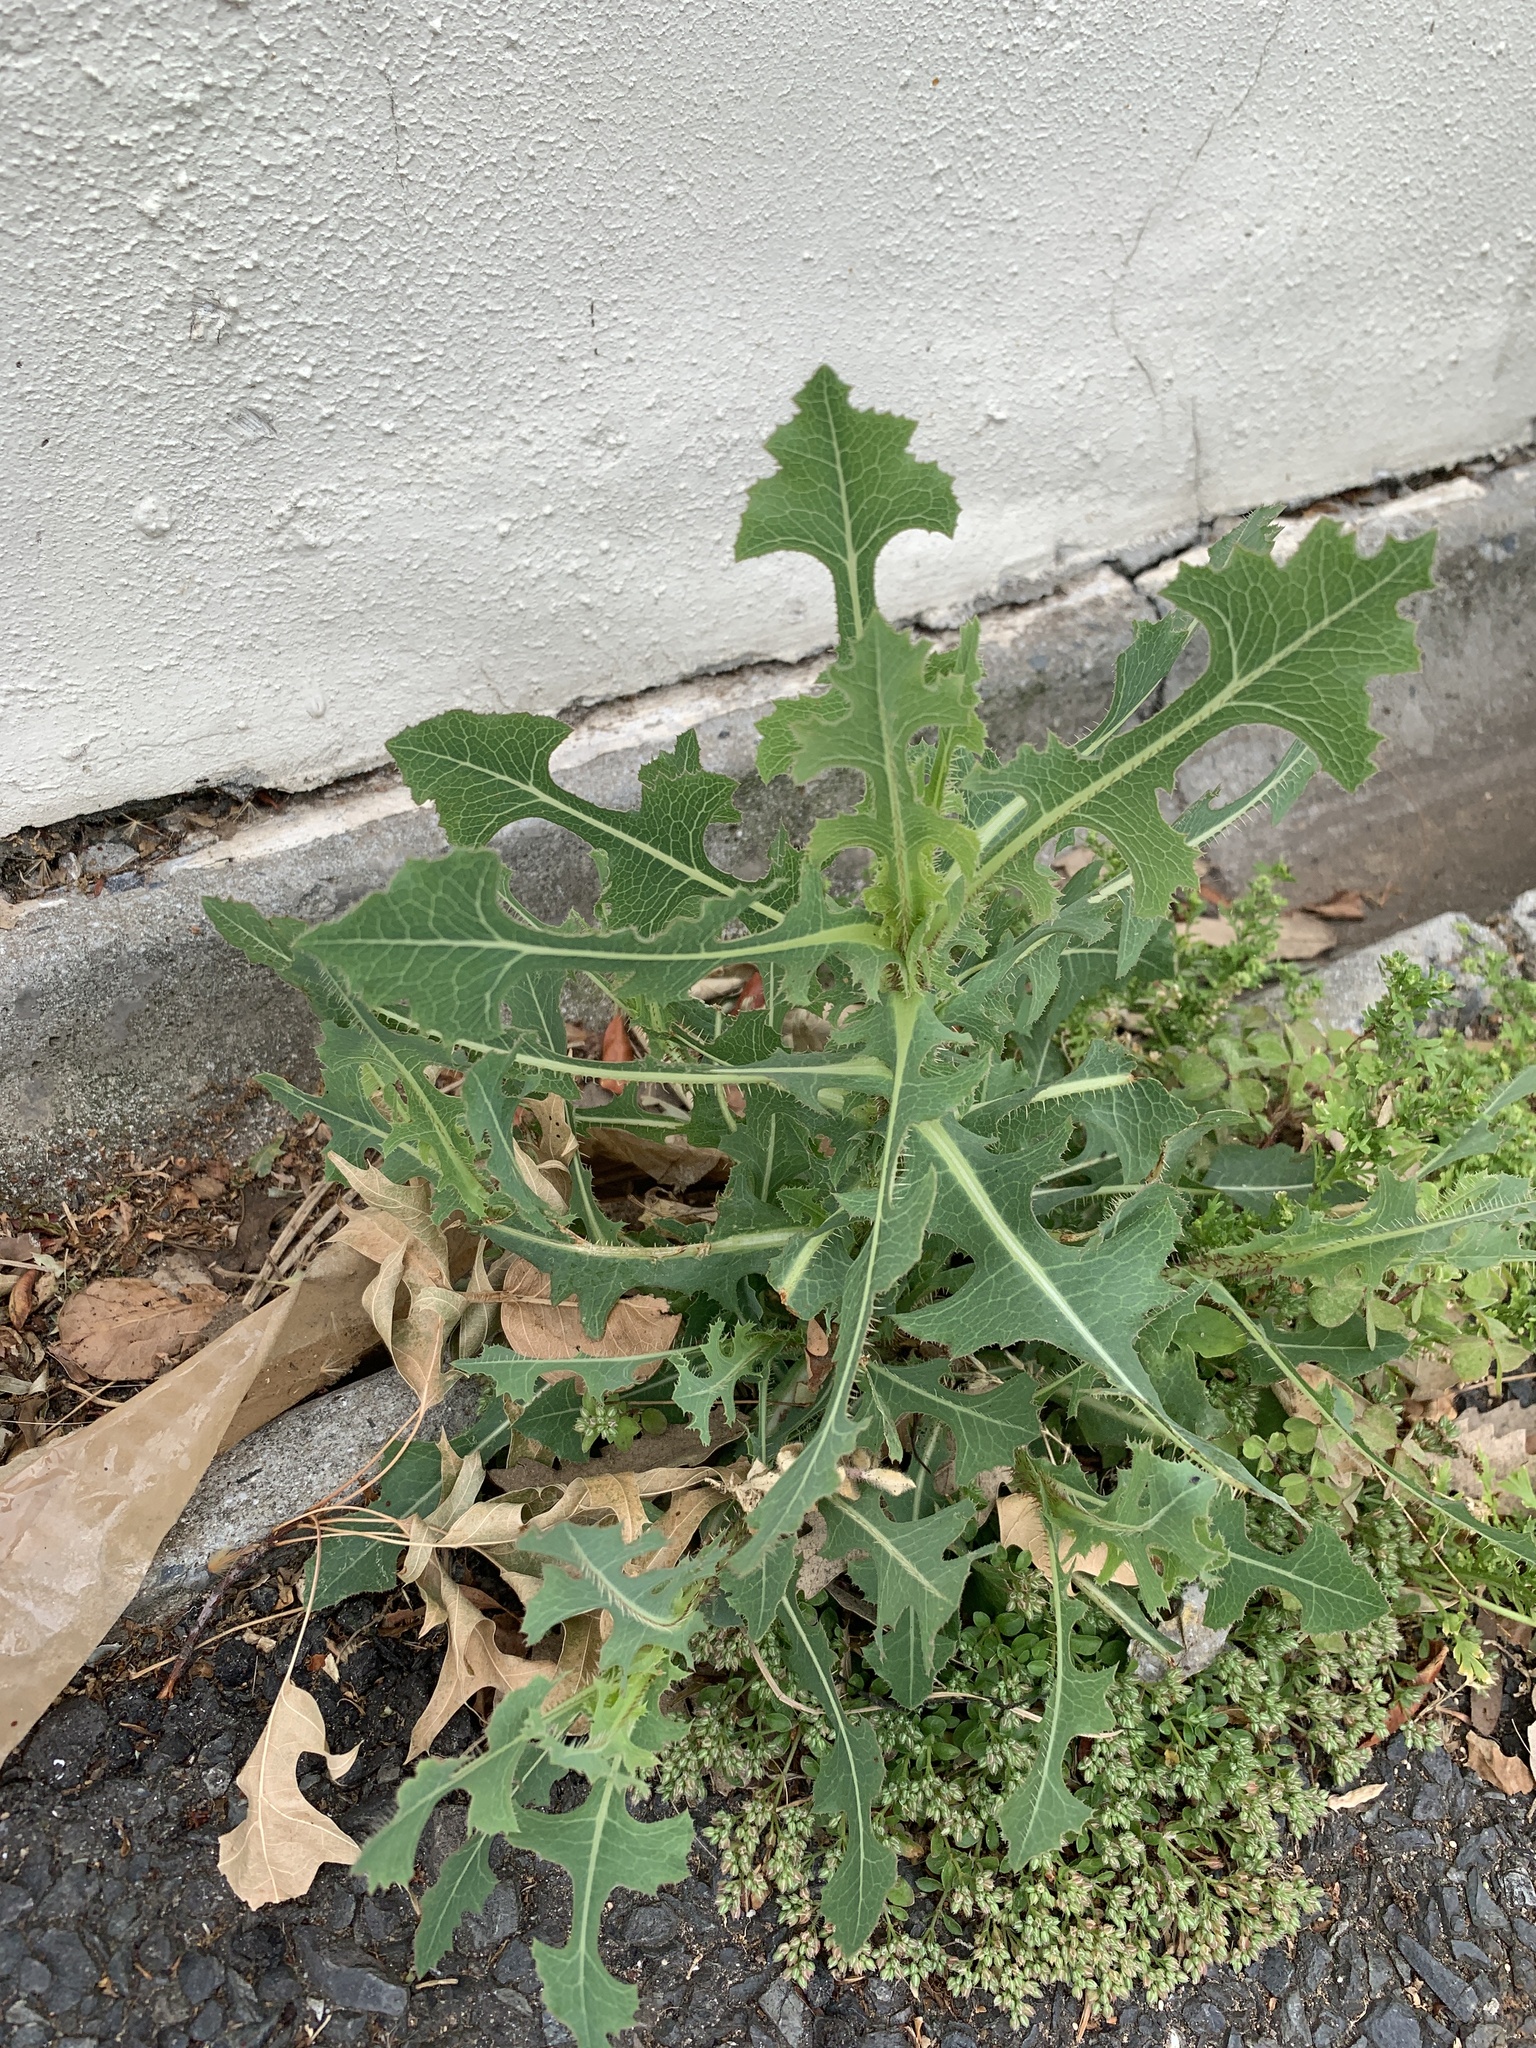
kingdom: Plantae
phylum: Tracheophyta
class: Magnoliopsida
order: Asterales
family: Asteraceae
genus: Lactuca
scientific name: Lactuca serriola
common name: Prickly lettuce
